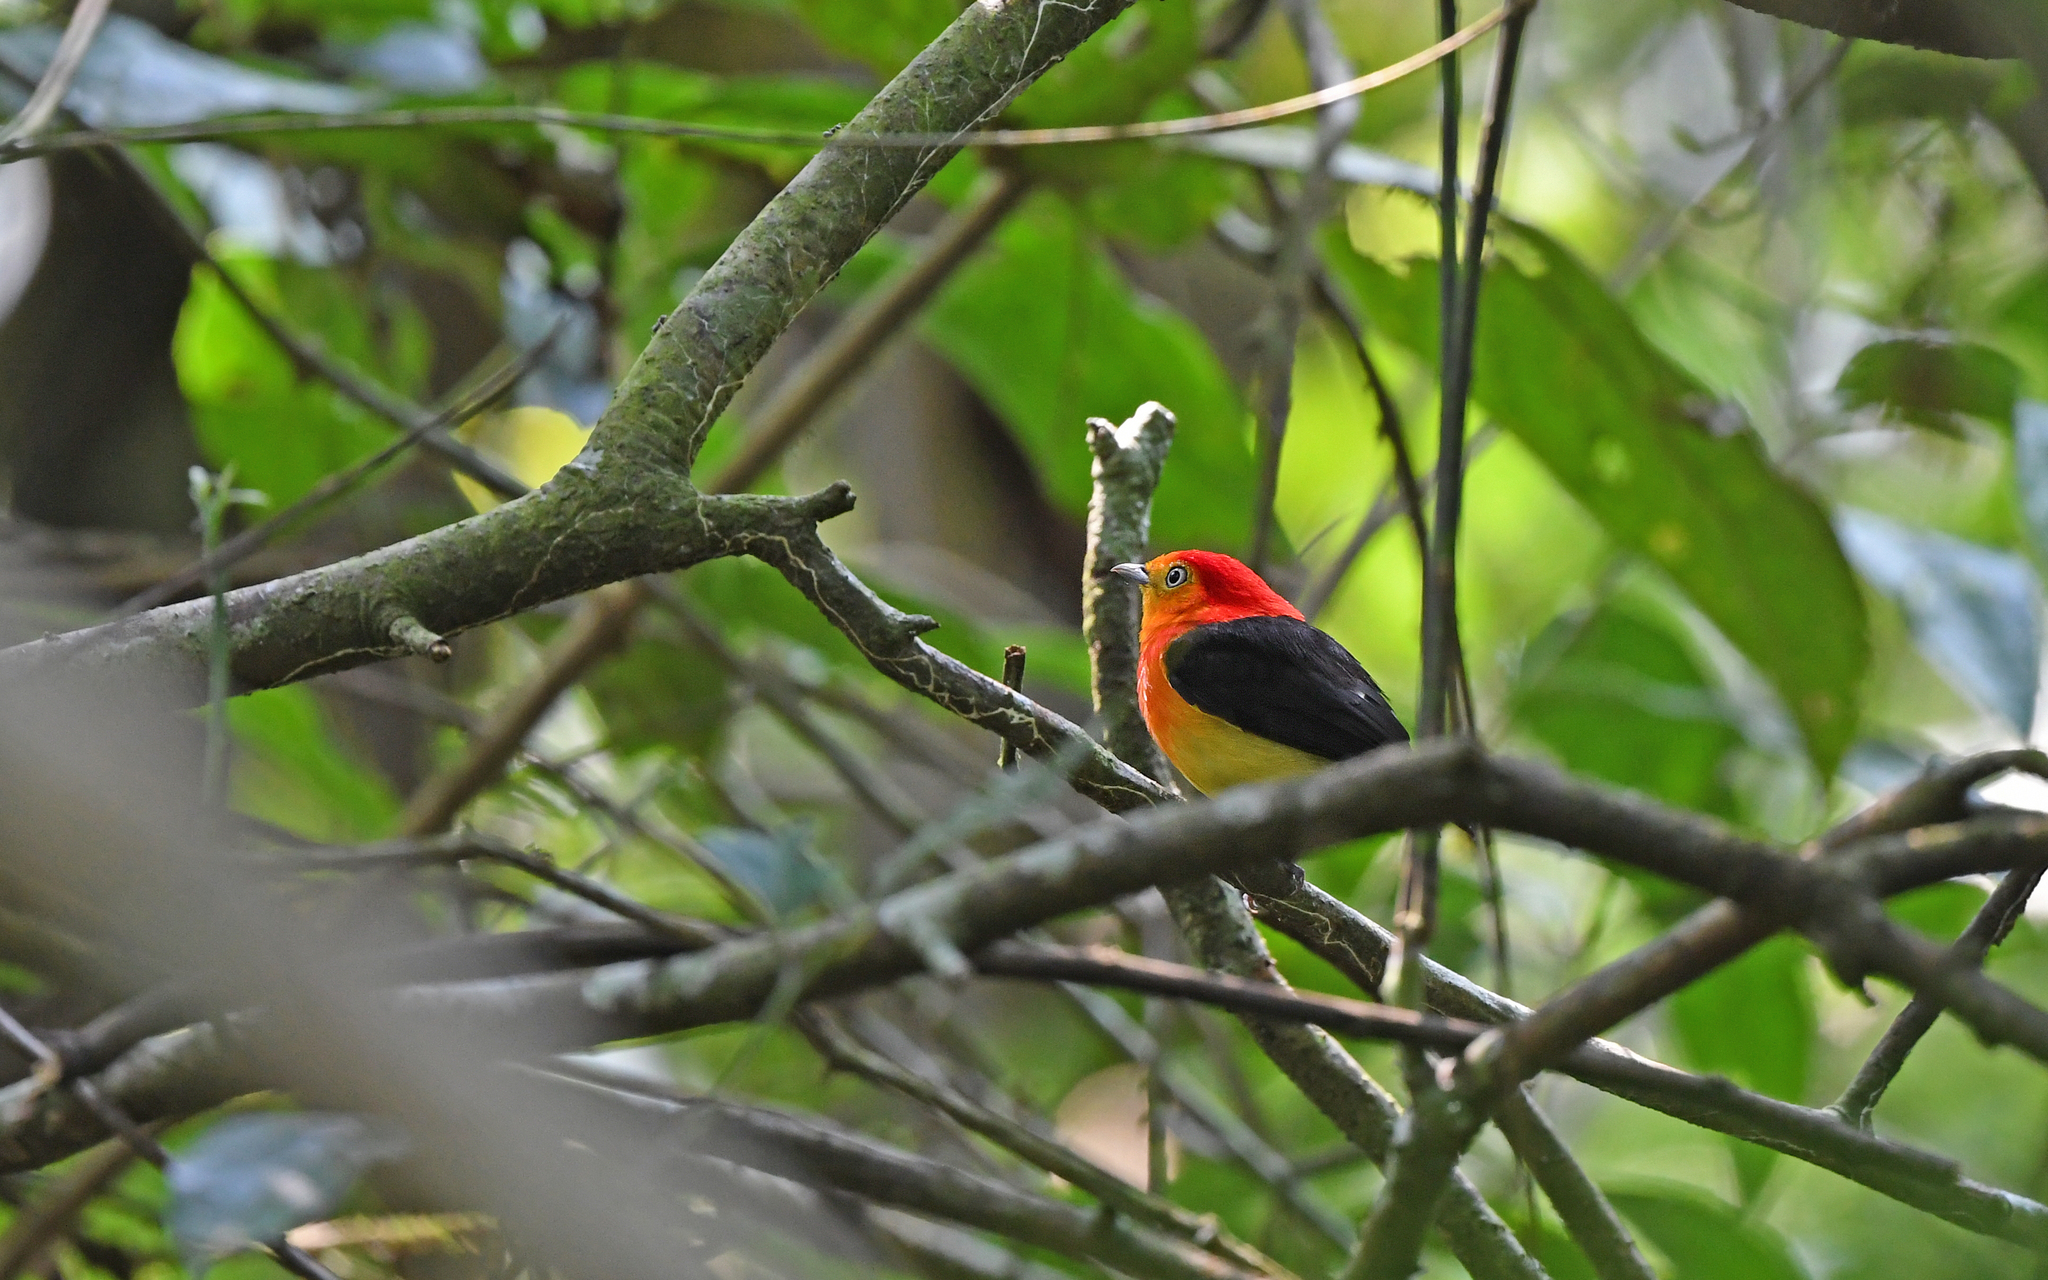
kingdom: Animalia
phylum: Chordata
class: Aves
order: Passeriformes
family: Pipridae
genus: Pipra
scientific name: Pipra fasciicauda
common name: Band-tailed manakin
